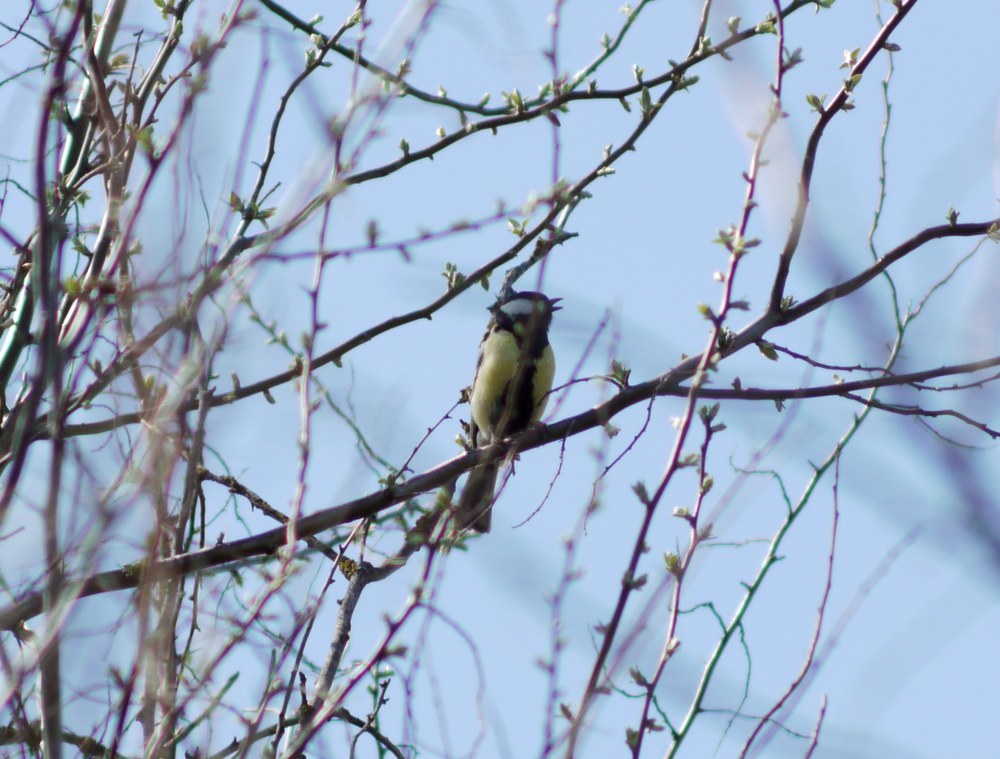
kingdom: Animalia
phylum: Chordata
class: Aves
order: Passeriformes
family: Paridae
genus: Parus
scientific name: Parus major
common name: Great tit
